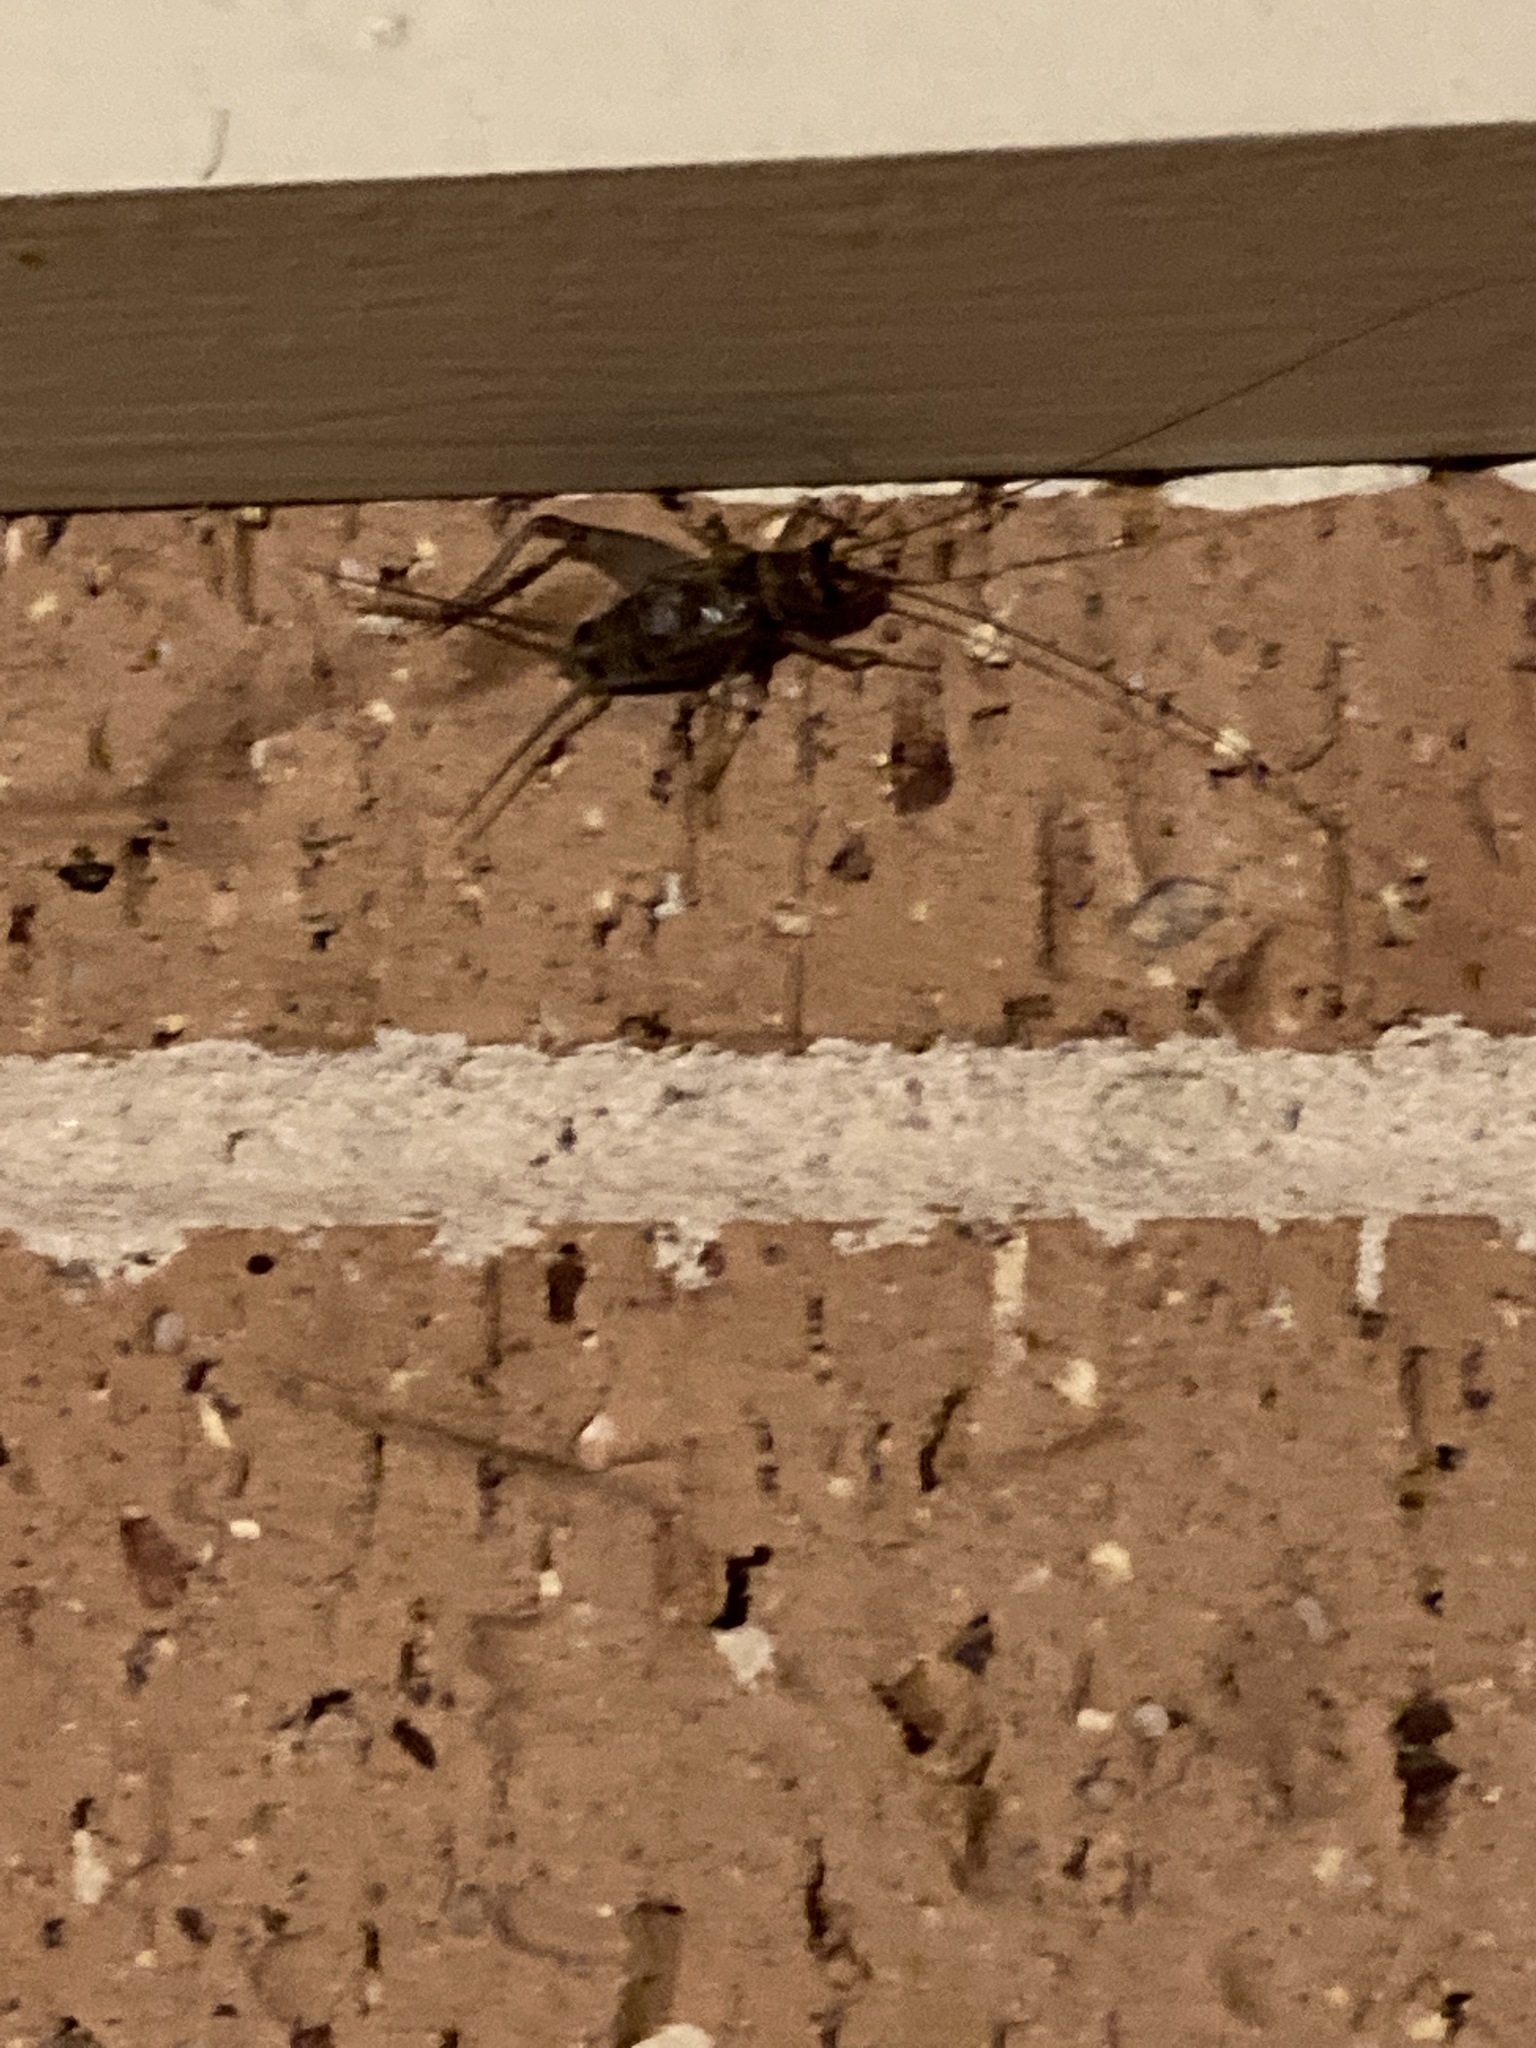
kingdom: Animalia
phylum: Arthropoda
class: Insecta
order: Orthoptera
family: Gryllidae
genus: Gryllodes
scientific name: Gryllodes sigillatus
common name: Tropical house cricket
